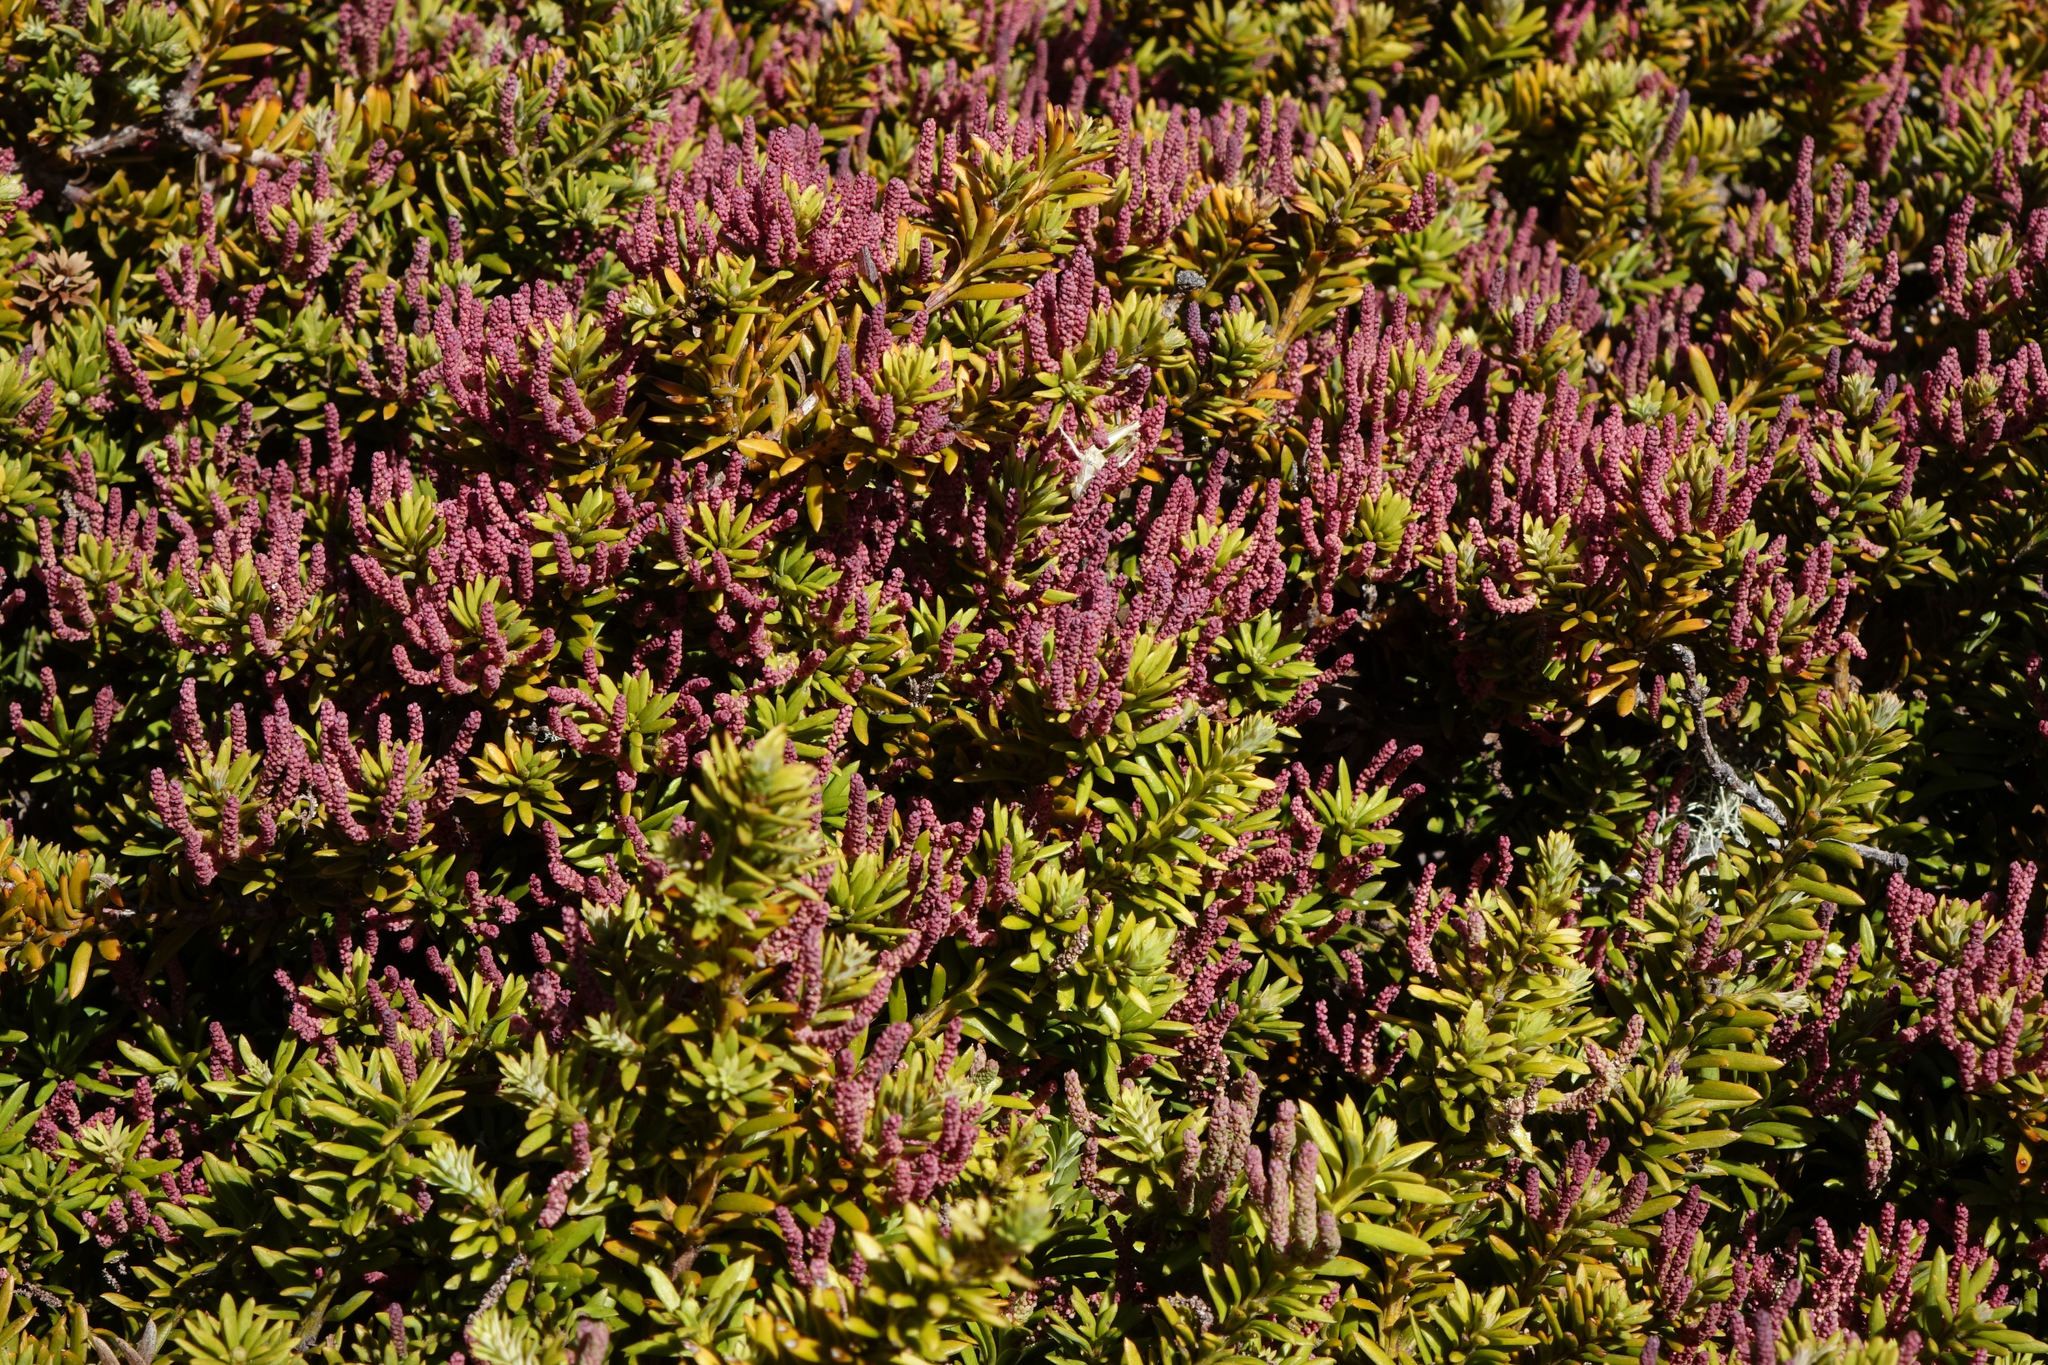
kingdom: Plantae
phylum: Tracheophyta
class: Pinopsida
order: Pinales
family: Podocarpaceae
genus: Podocarpus
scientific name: Podocarpus nivalis
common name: Alpine totara
